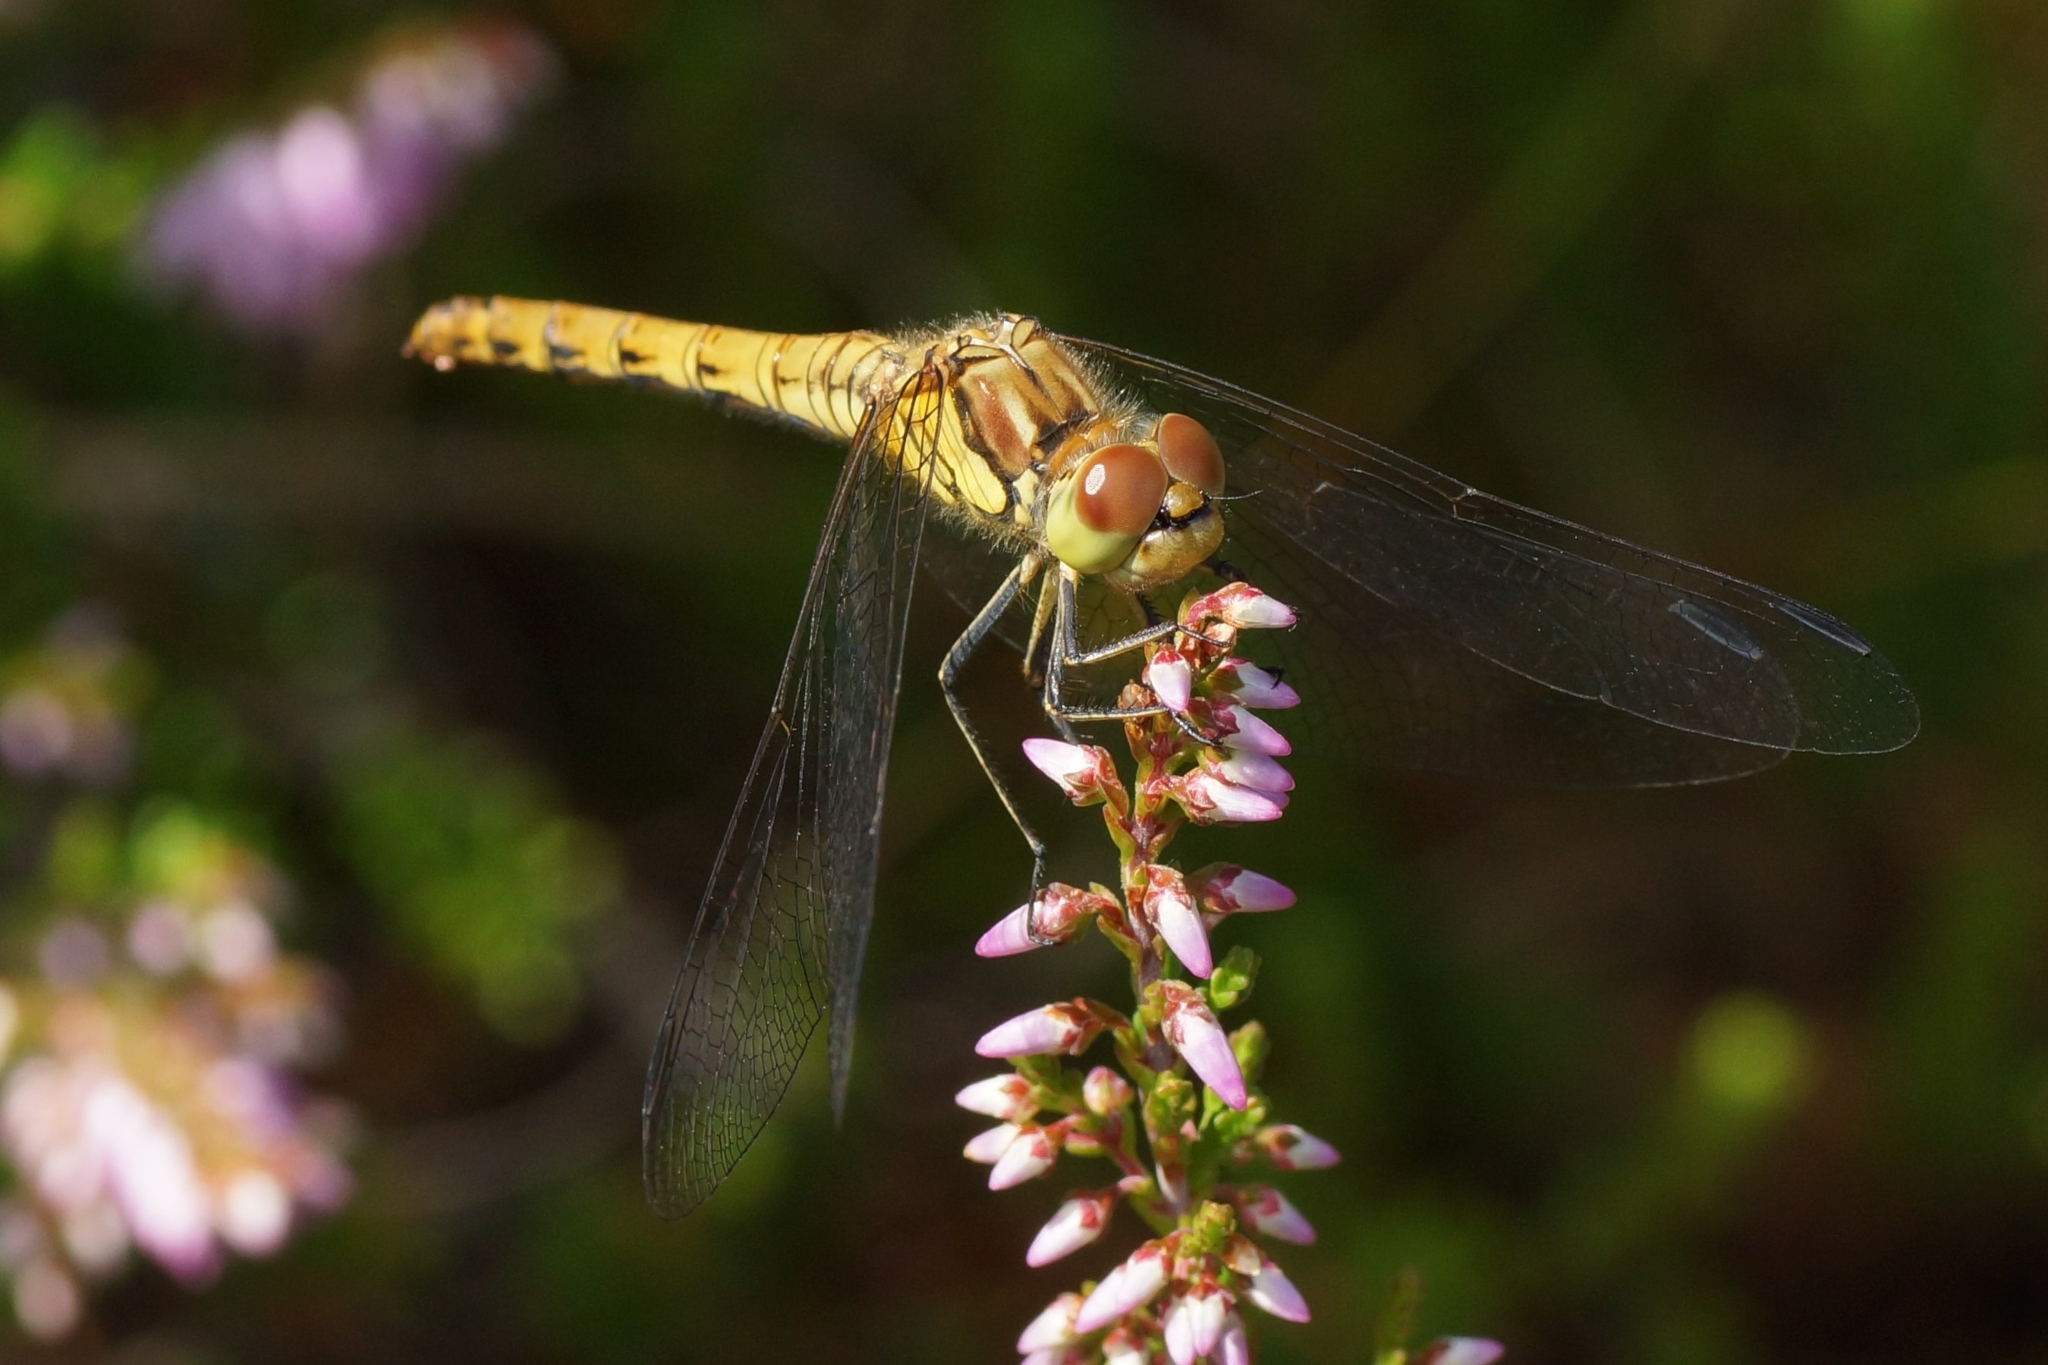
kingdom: Animalia
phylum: Arthropoda
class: Insecta
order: Odonata
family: Libellulidae
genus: Sympetrum
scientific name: Sympetrum striolatum
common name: Common darter
